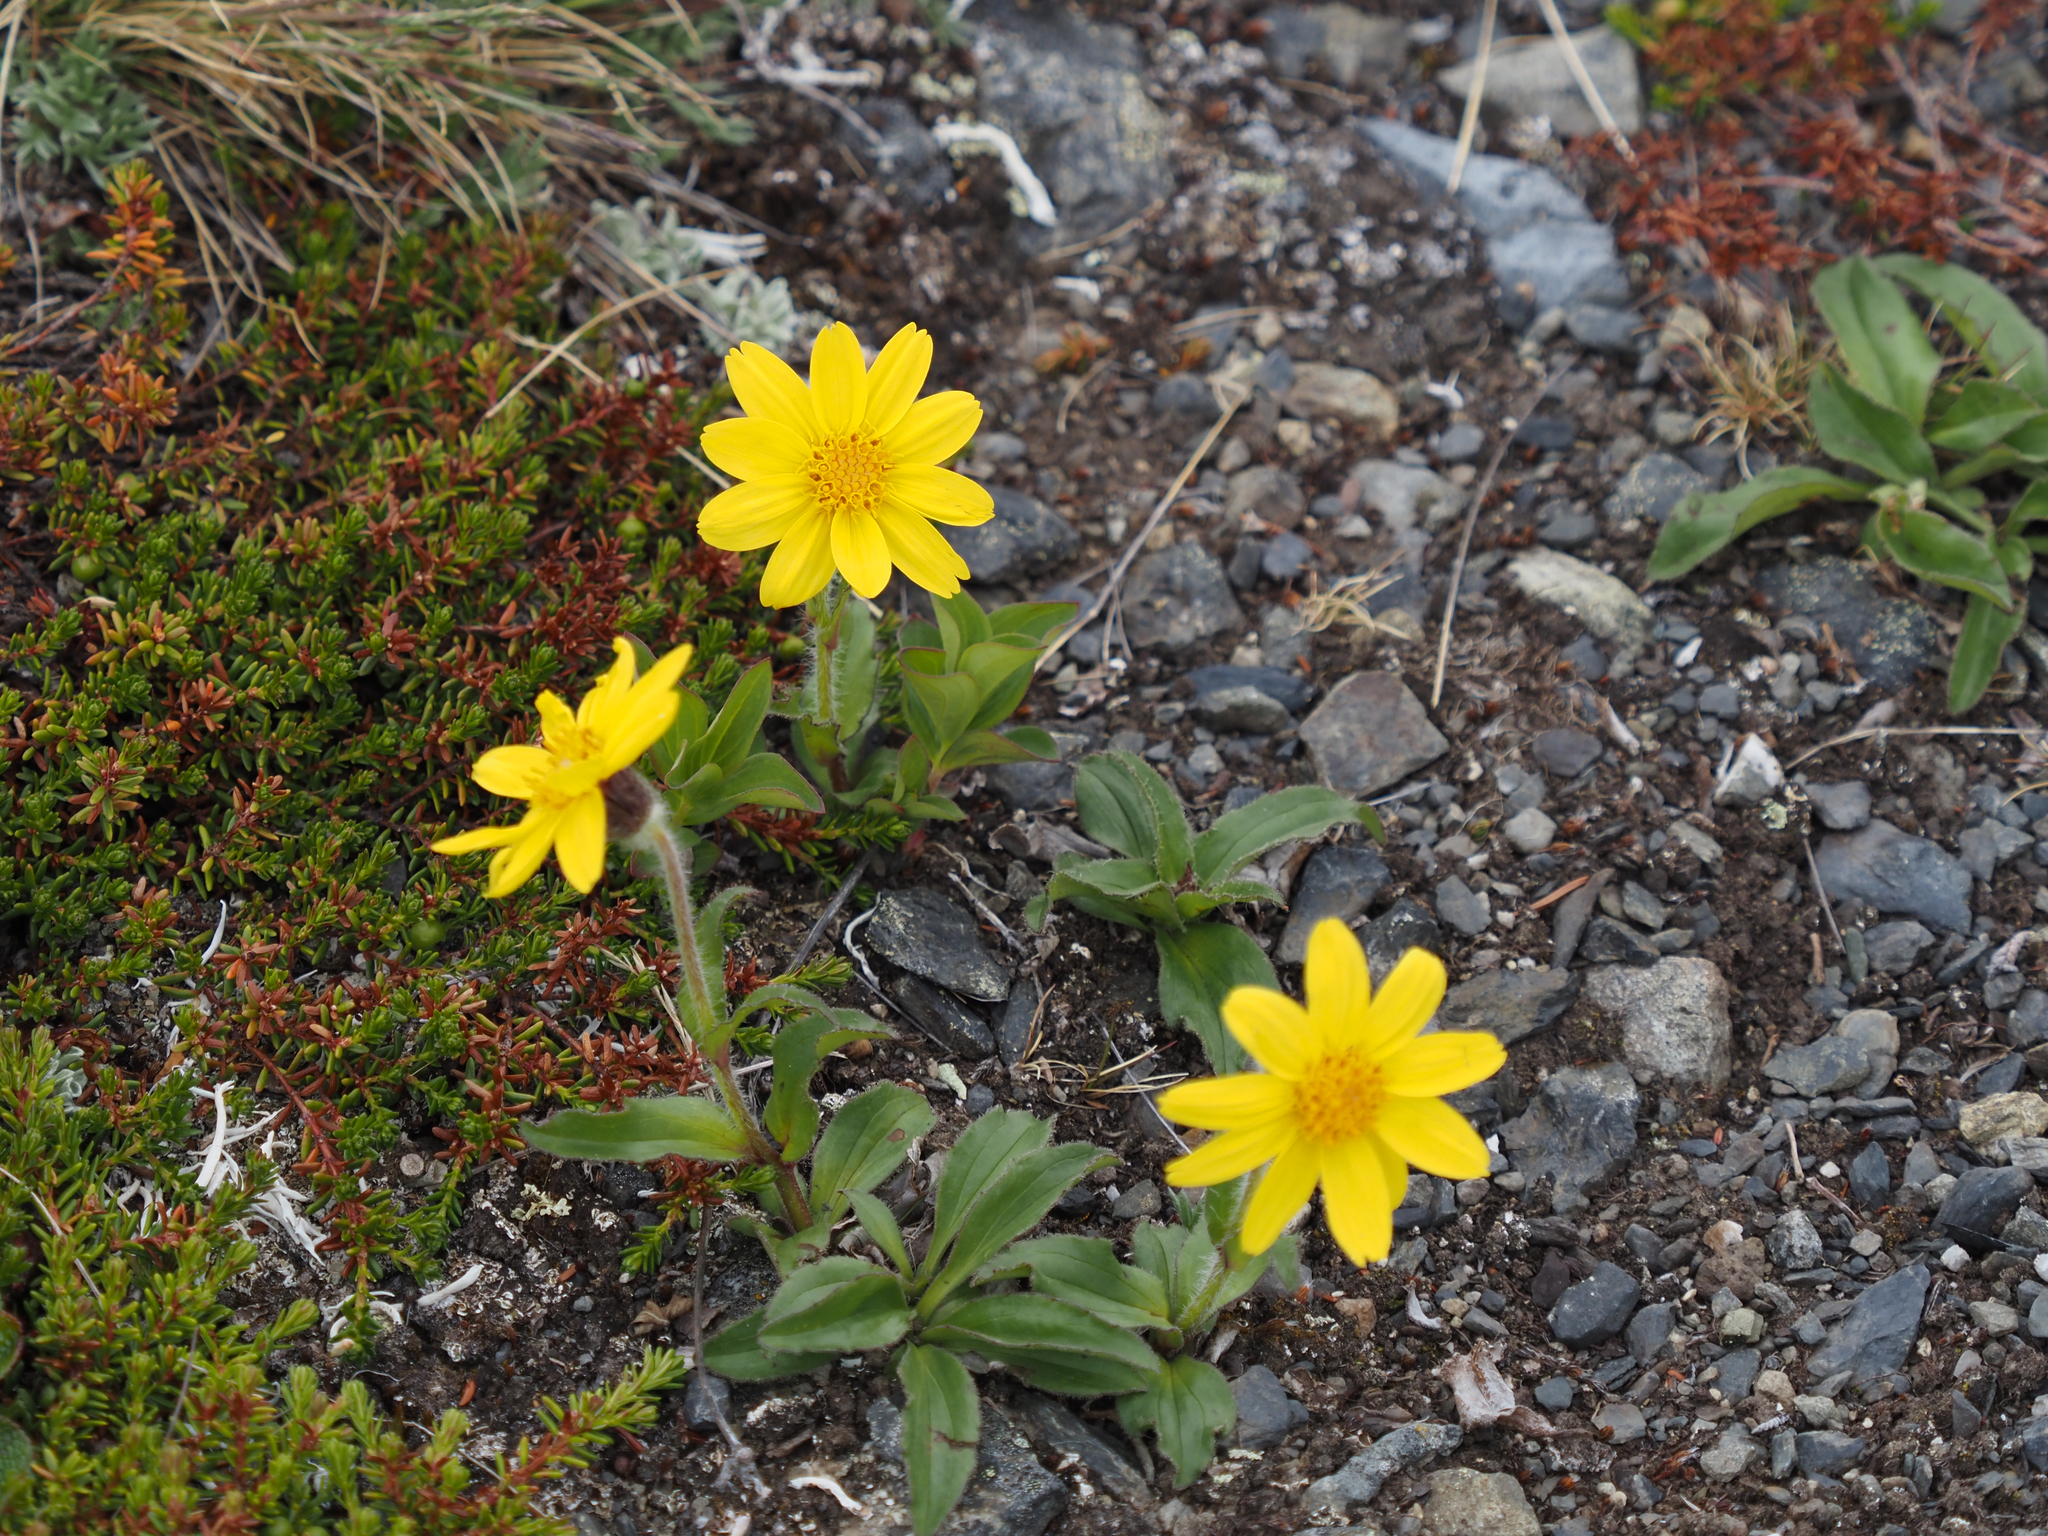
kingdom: Plantae
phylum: Tracheophyta
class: Magnoliopsida
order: Asterales
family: Asteraceae
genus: Arnica
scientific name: Arnica griscomii
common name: Snow arnica
